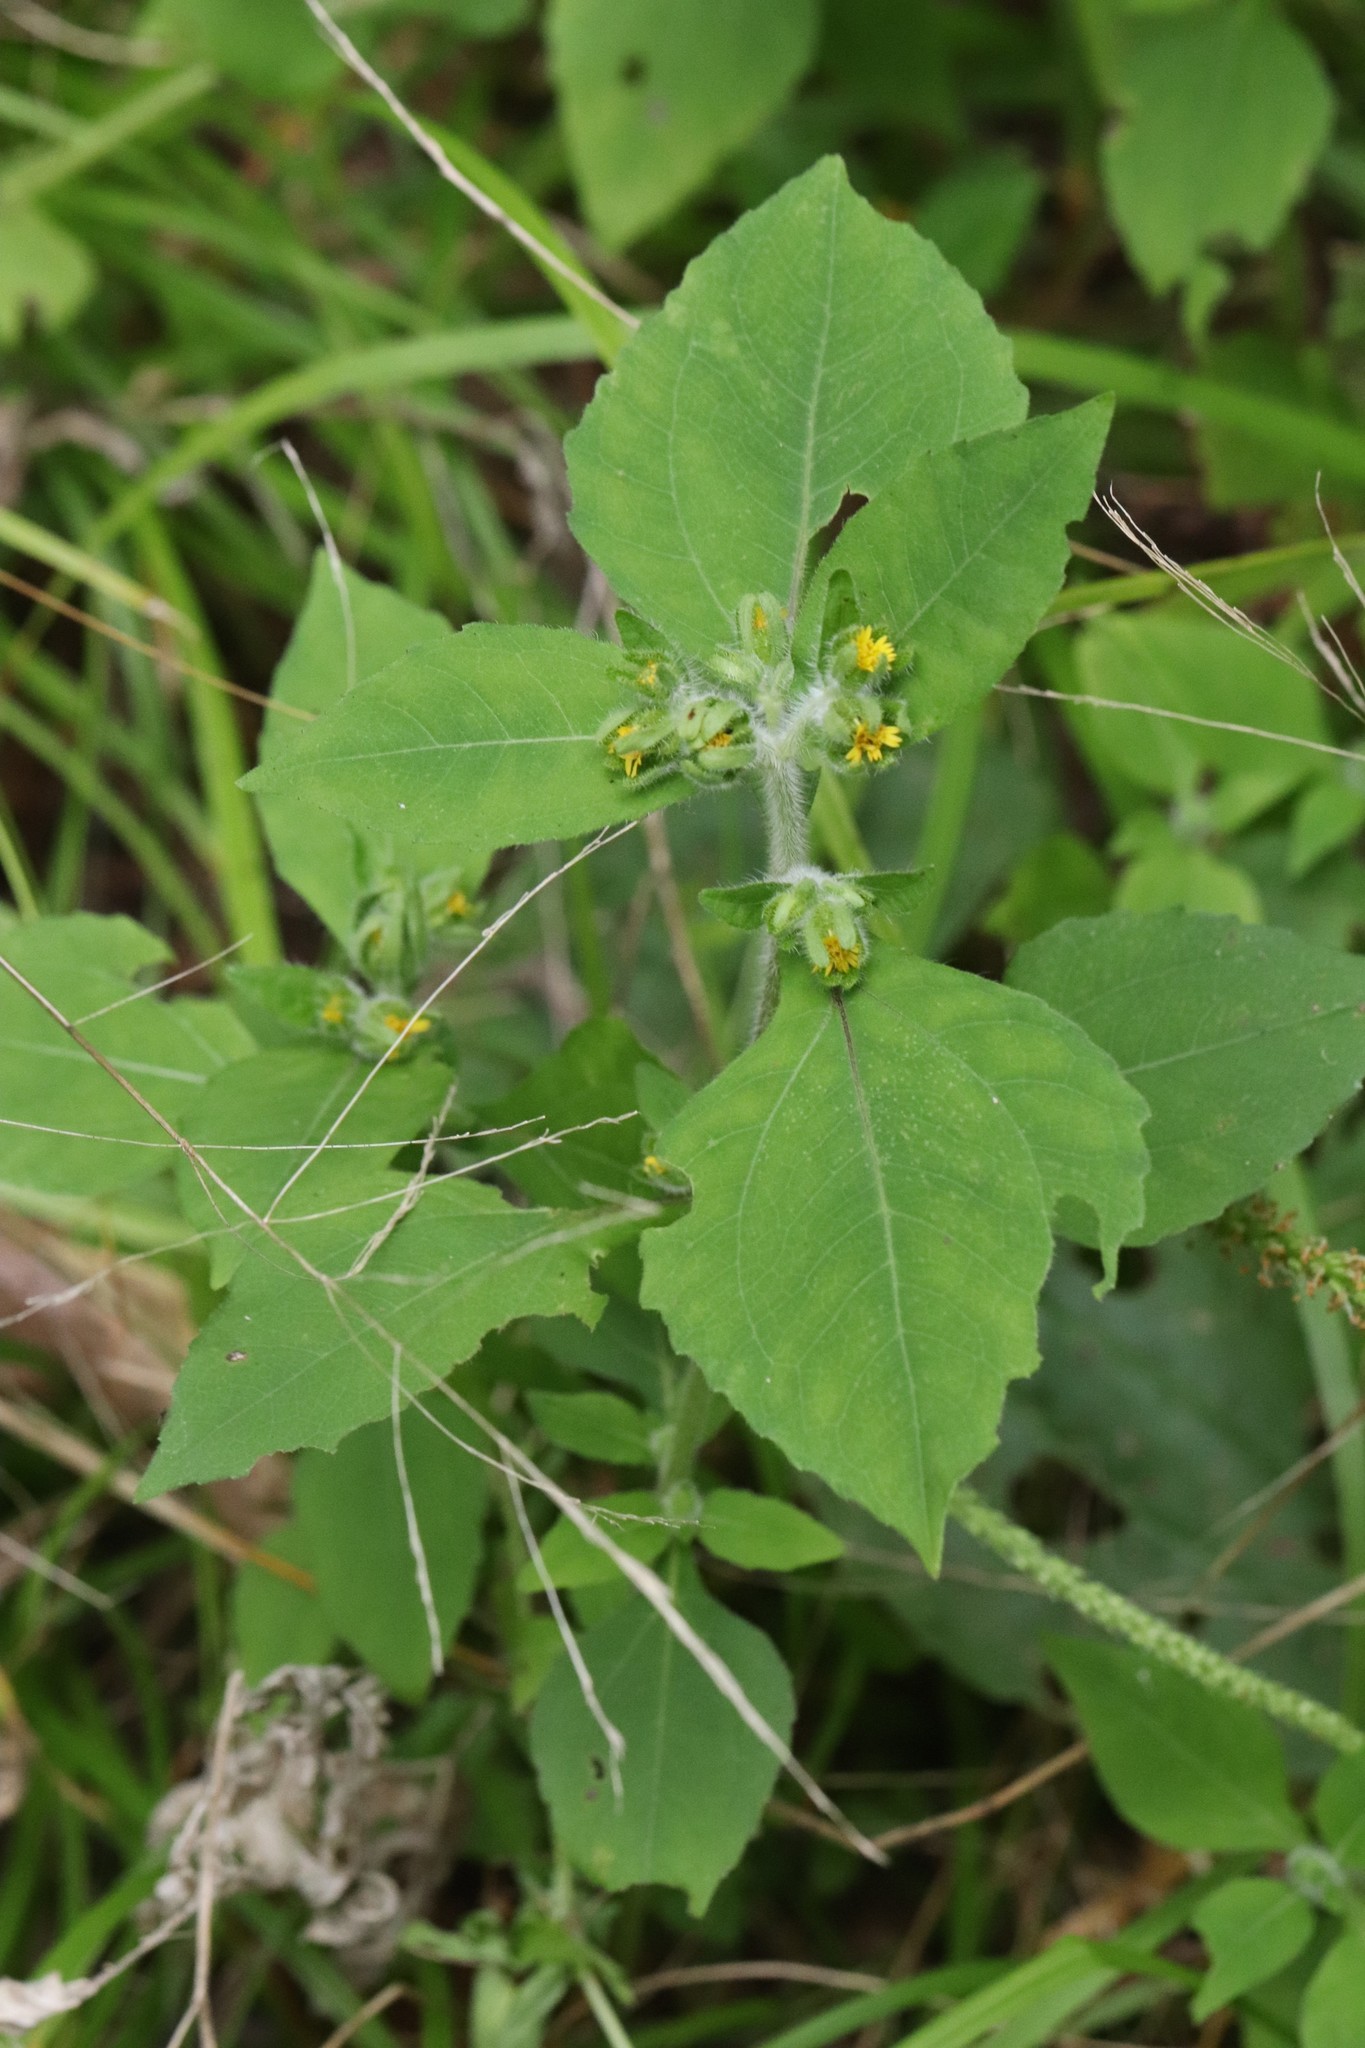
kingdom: Plantae
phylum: Tracheophyta
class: Magnoliopsida
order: Asterales
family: Asteraceae
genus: Sigesbeckia
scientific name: Sigesbeckia pubescens
